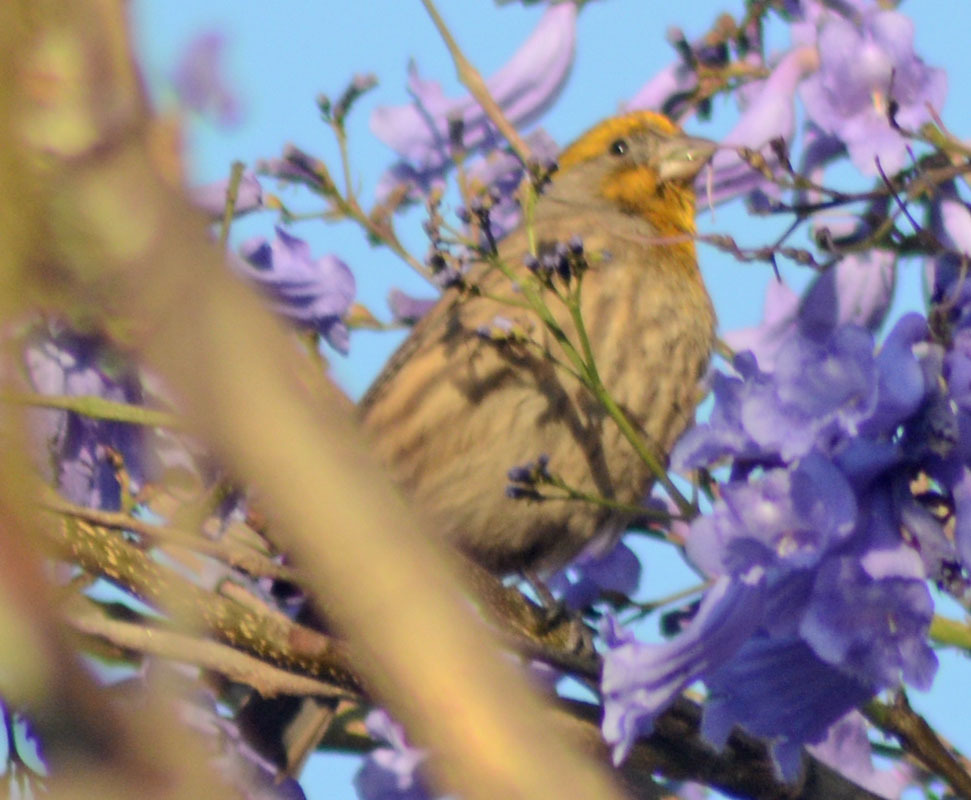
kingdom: Animalia
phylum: Chordata
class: Aves
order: Passeriformes
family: Fringillidae
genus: Haemorhous
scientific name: Haemorhous mexicanus
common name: House finch
